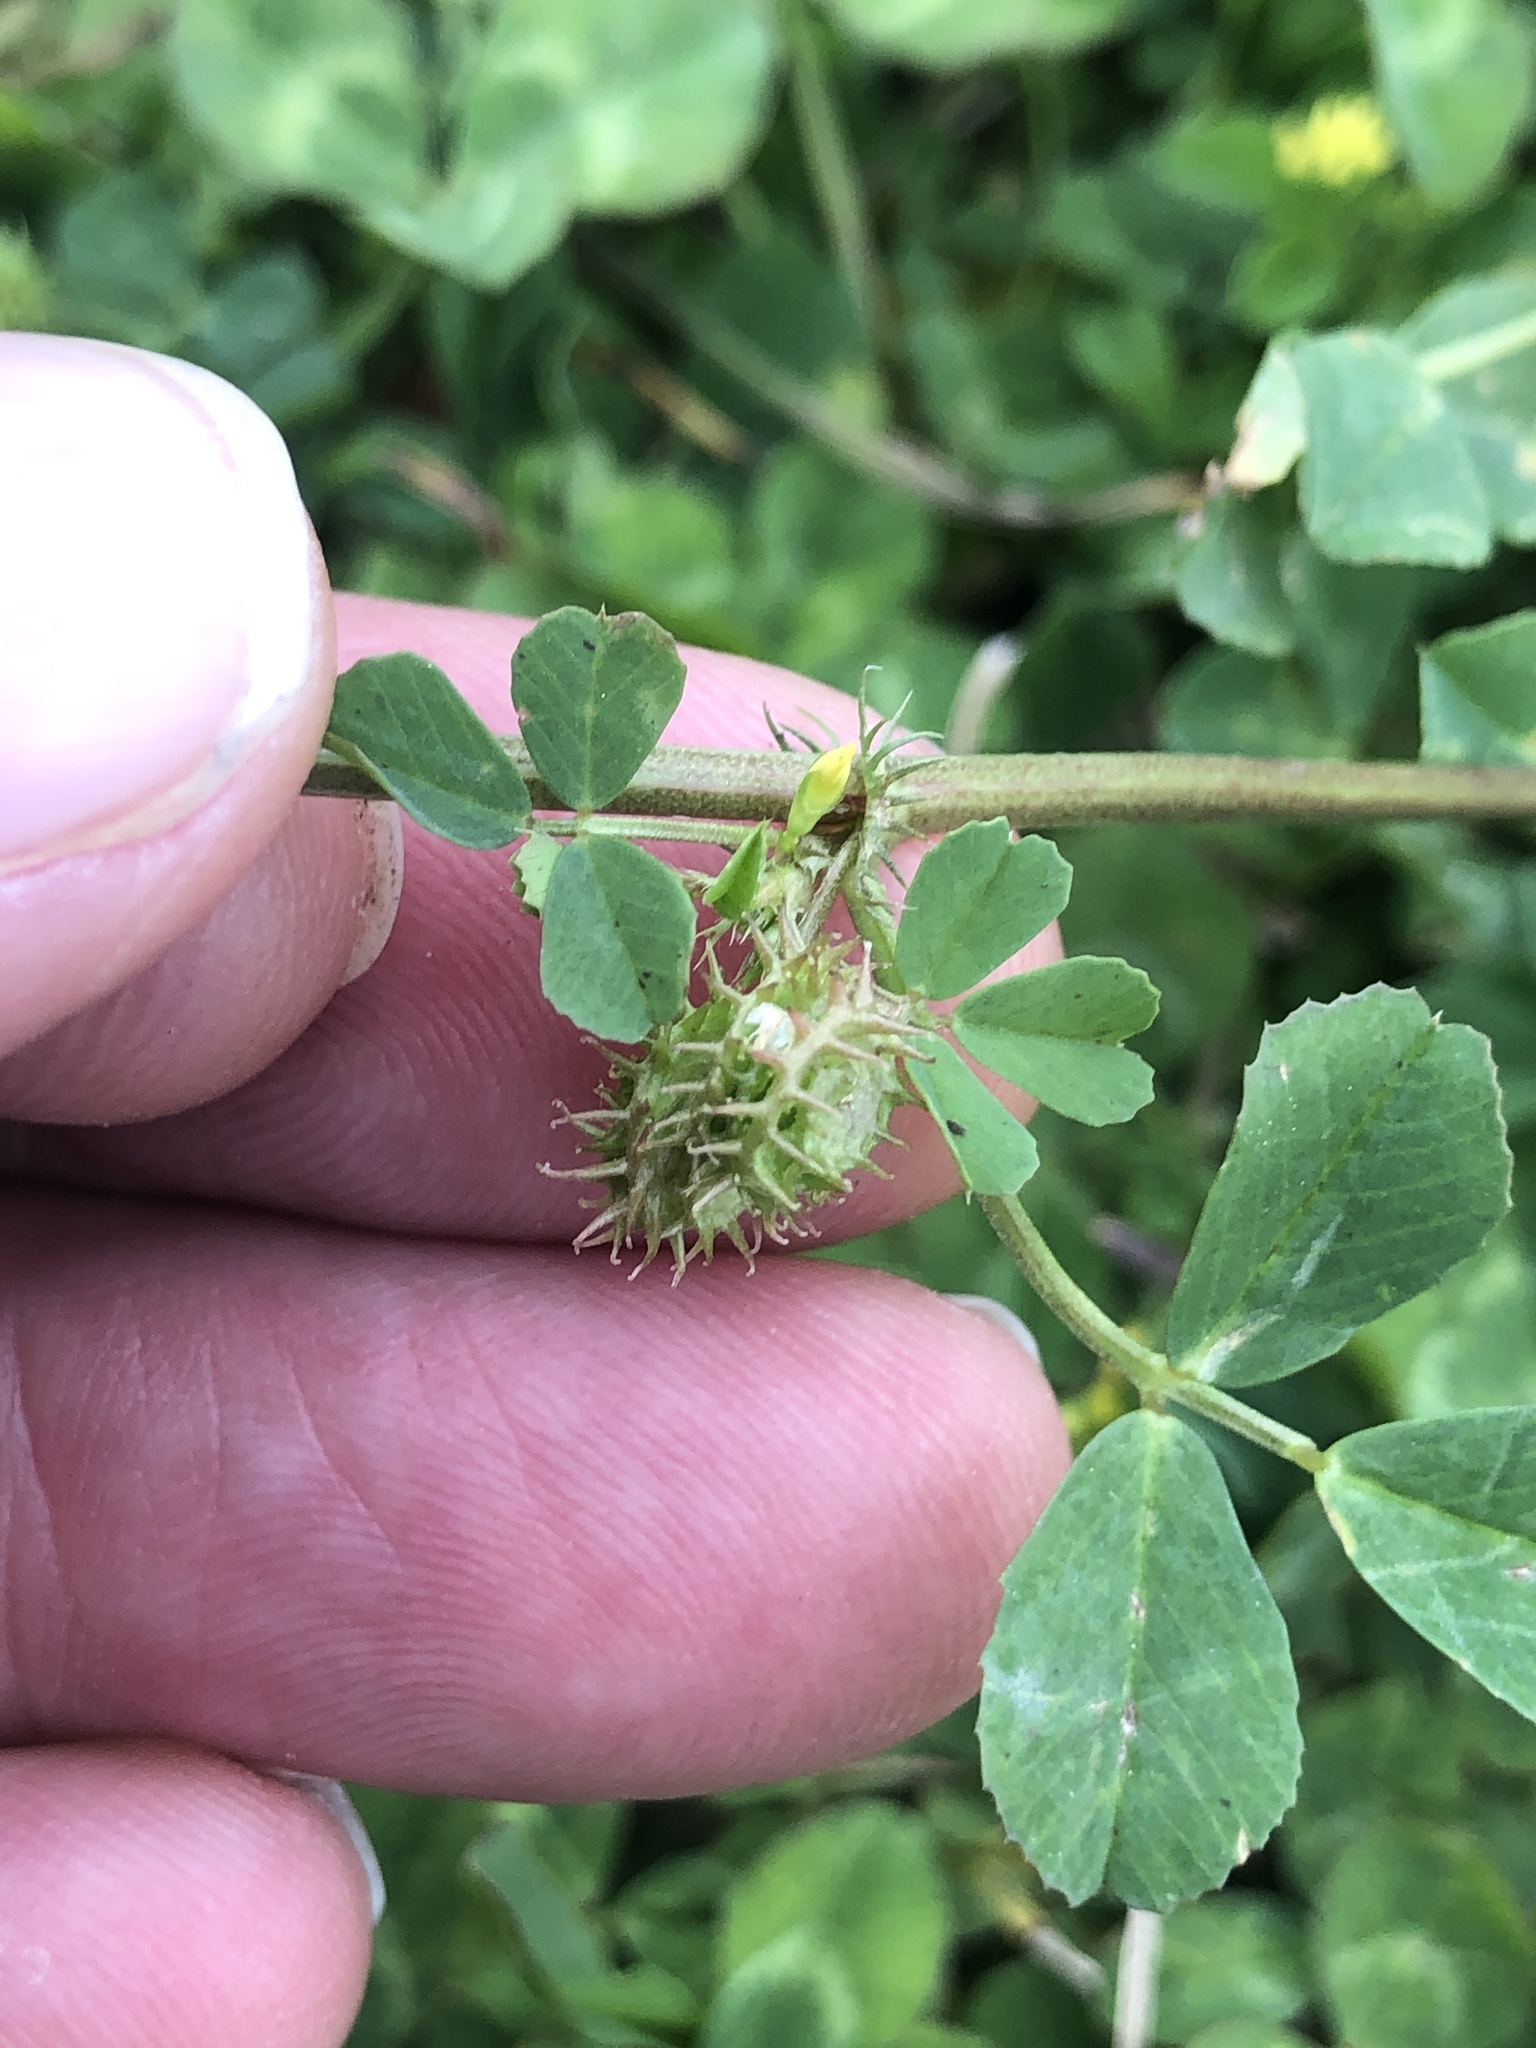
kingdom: Plantae
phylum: Tracheophyta
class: Magnoliopsida
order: Fabales
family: Fabaceae
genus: Medicago
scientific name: Medicago polymorpha
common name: Burclover
